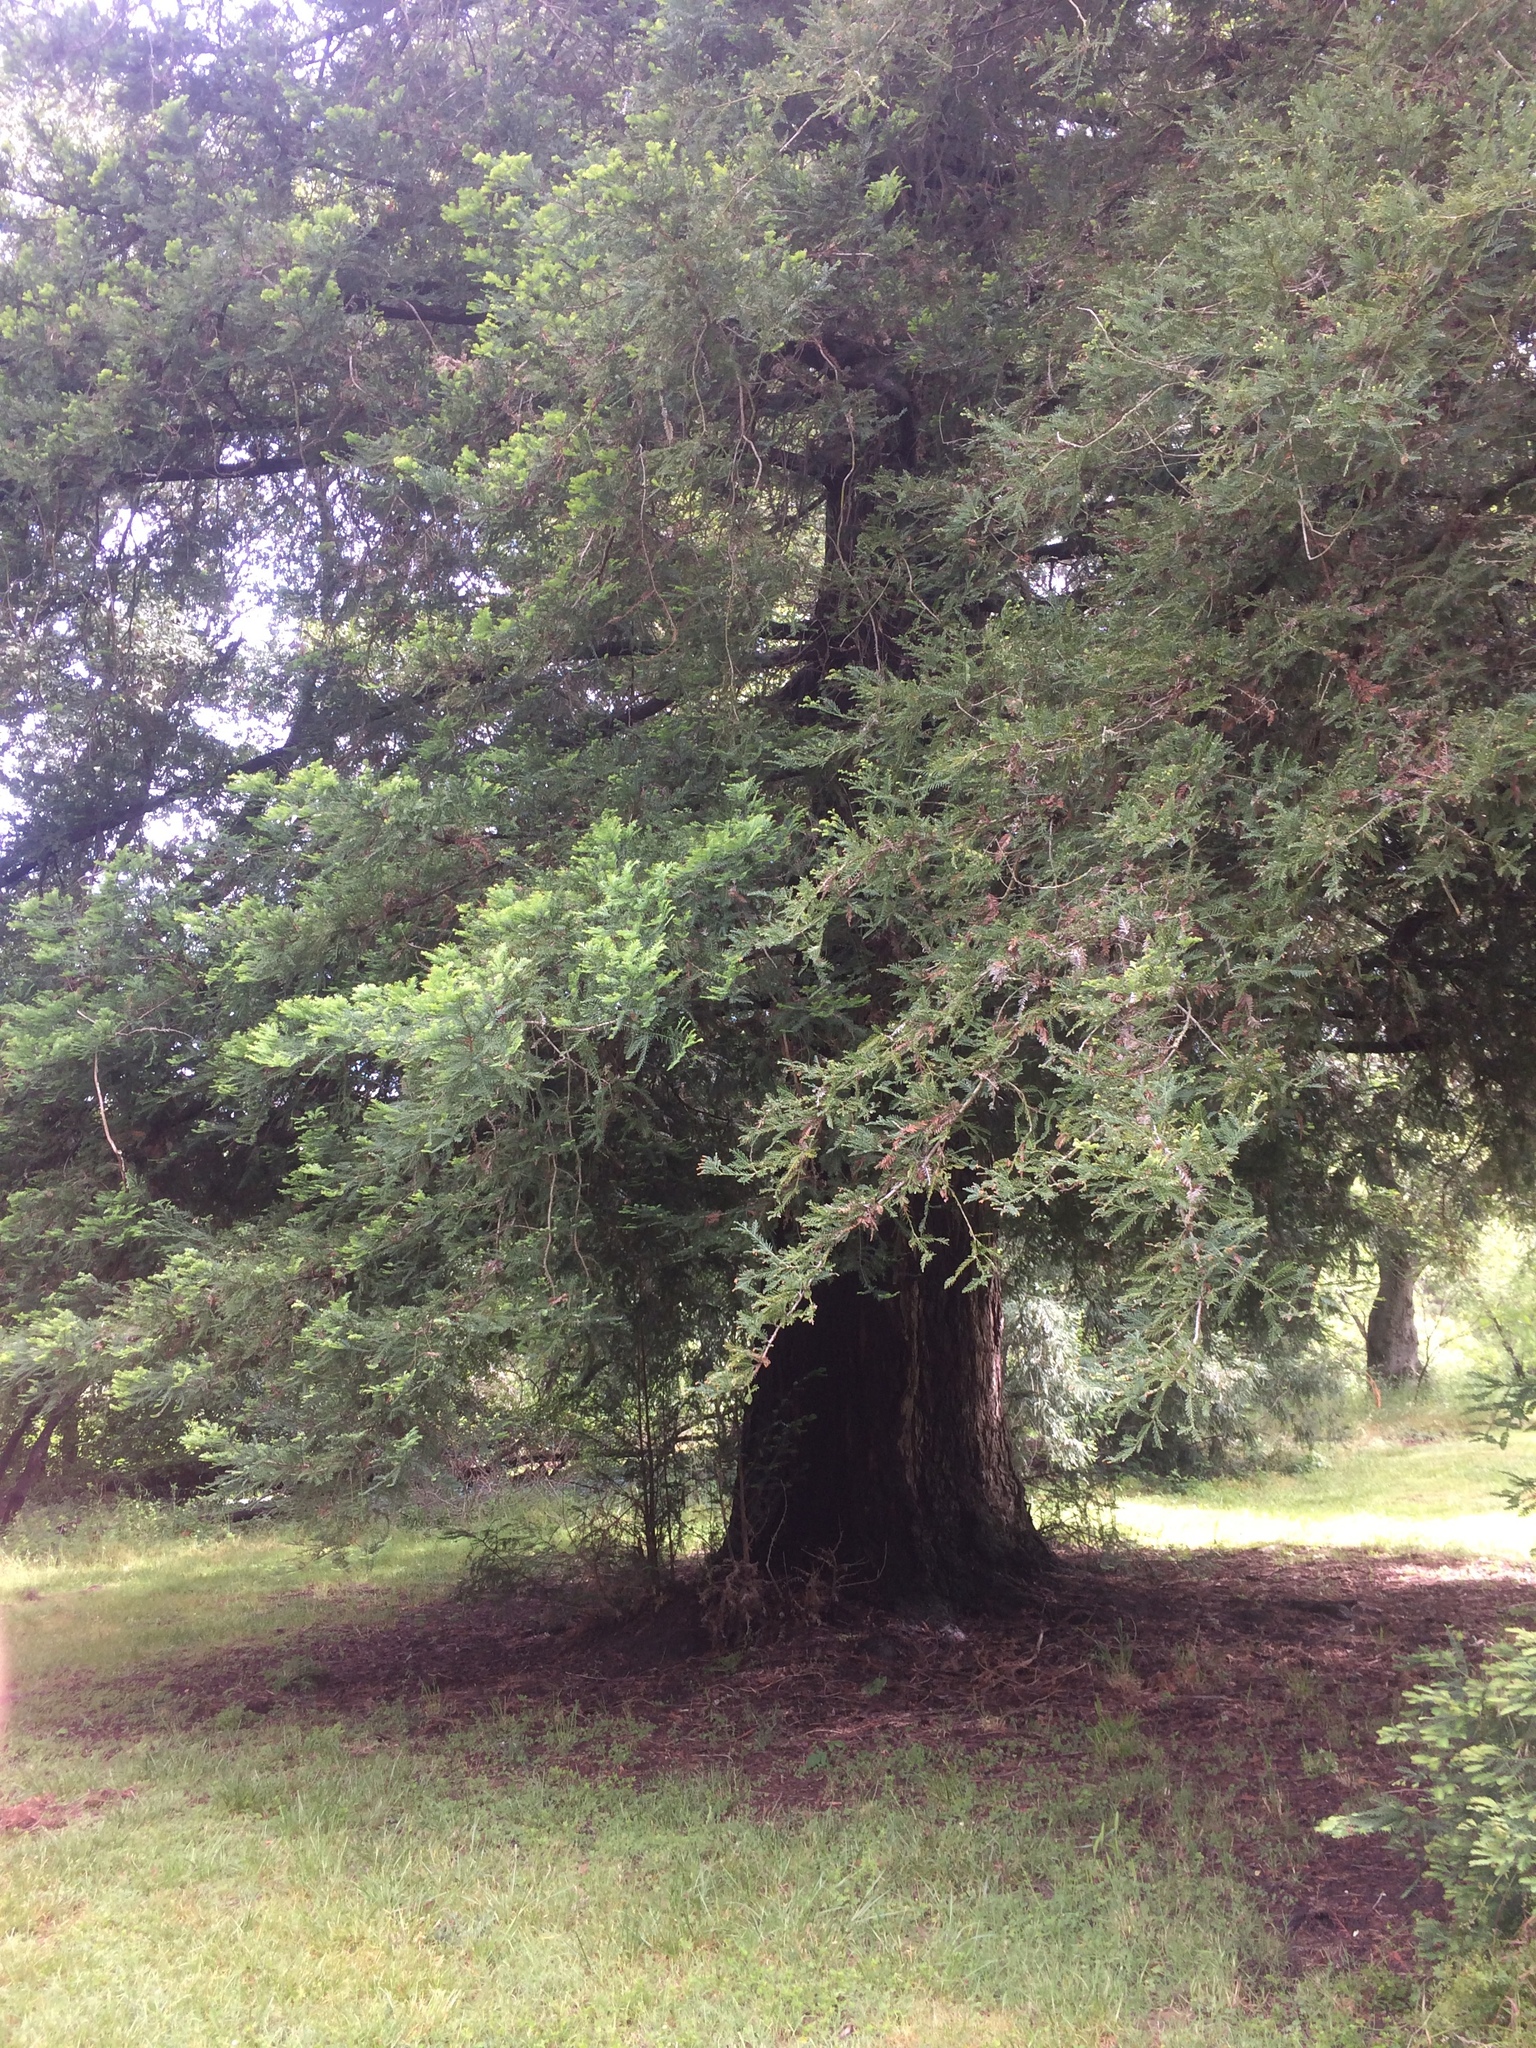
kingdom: Plantae
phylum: Tracheophyta
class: Pinopsida
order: Pinales
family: Cupressaceae
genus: Sequoia
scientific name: Sequoia sempervirens
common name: Coast redwood
